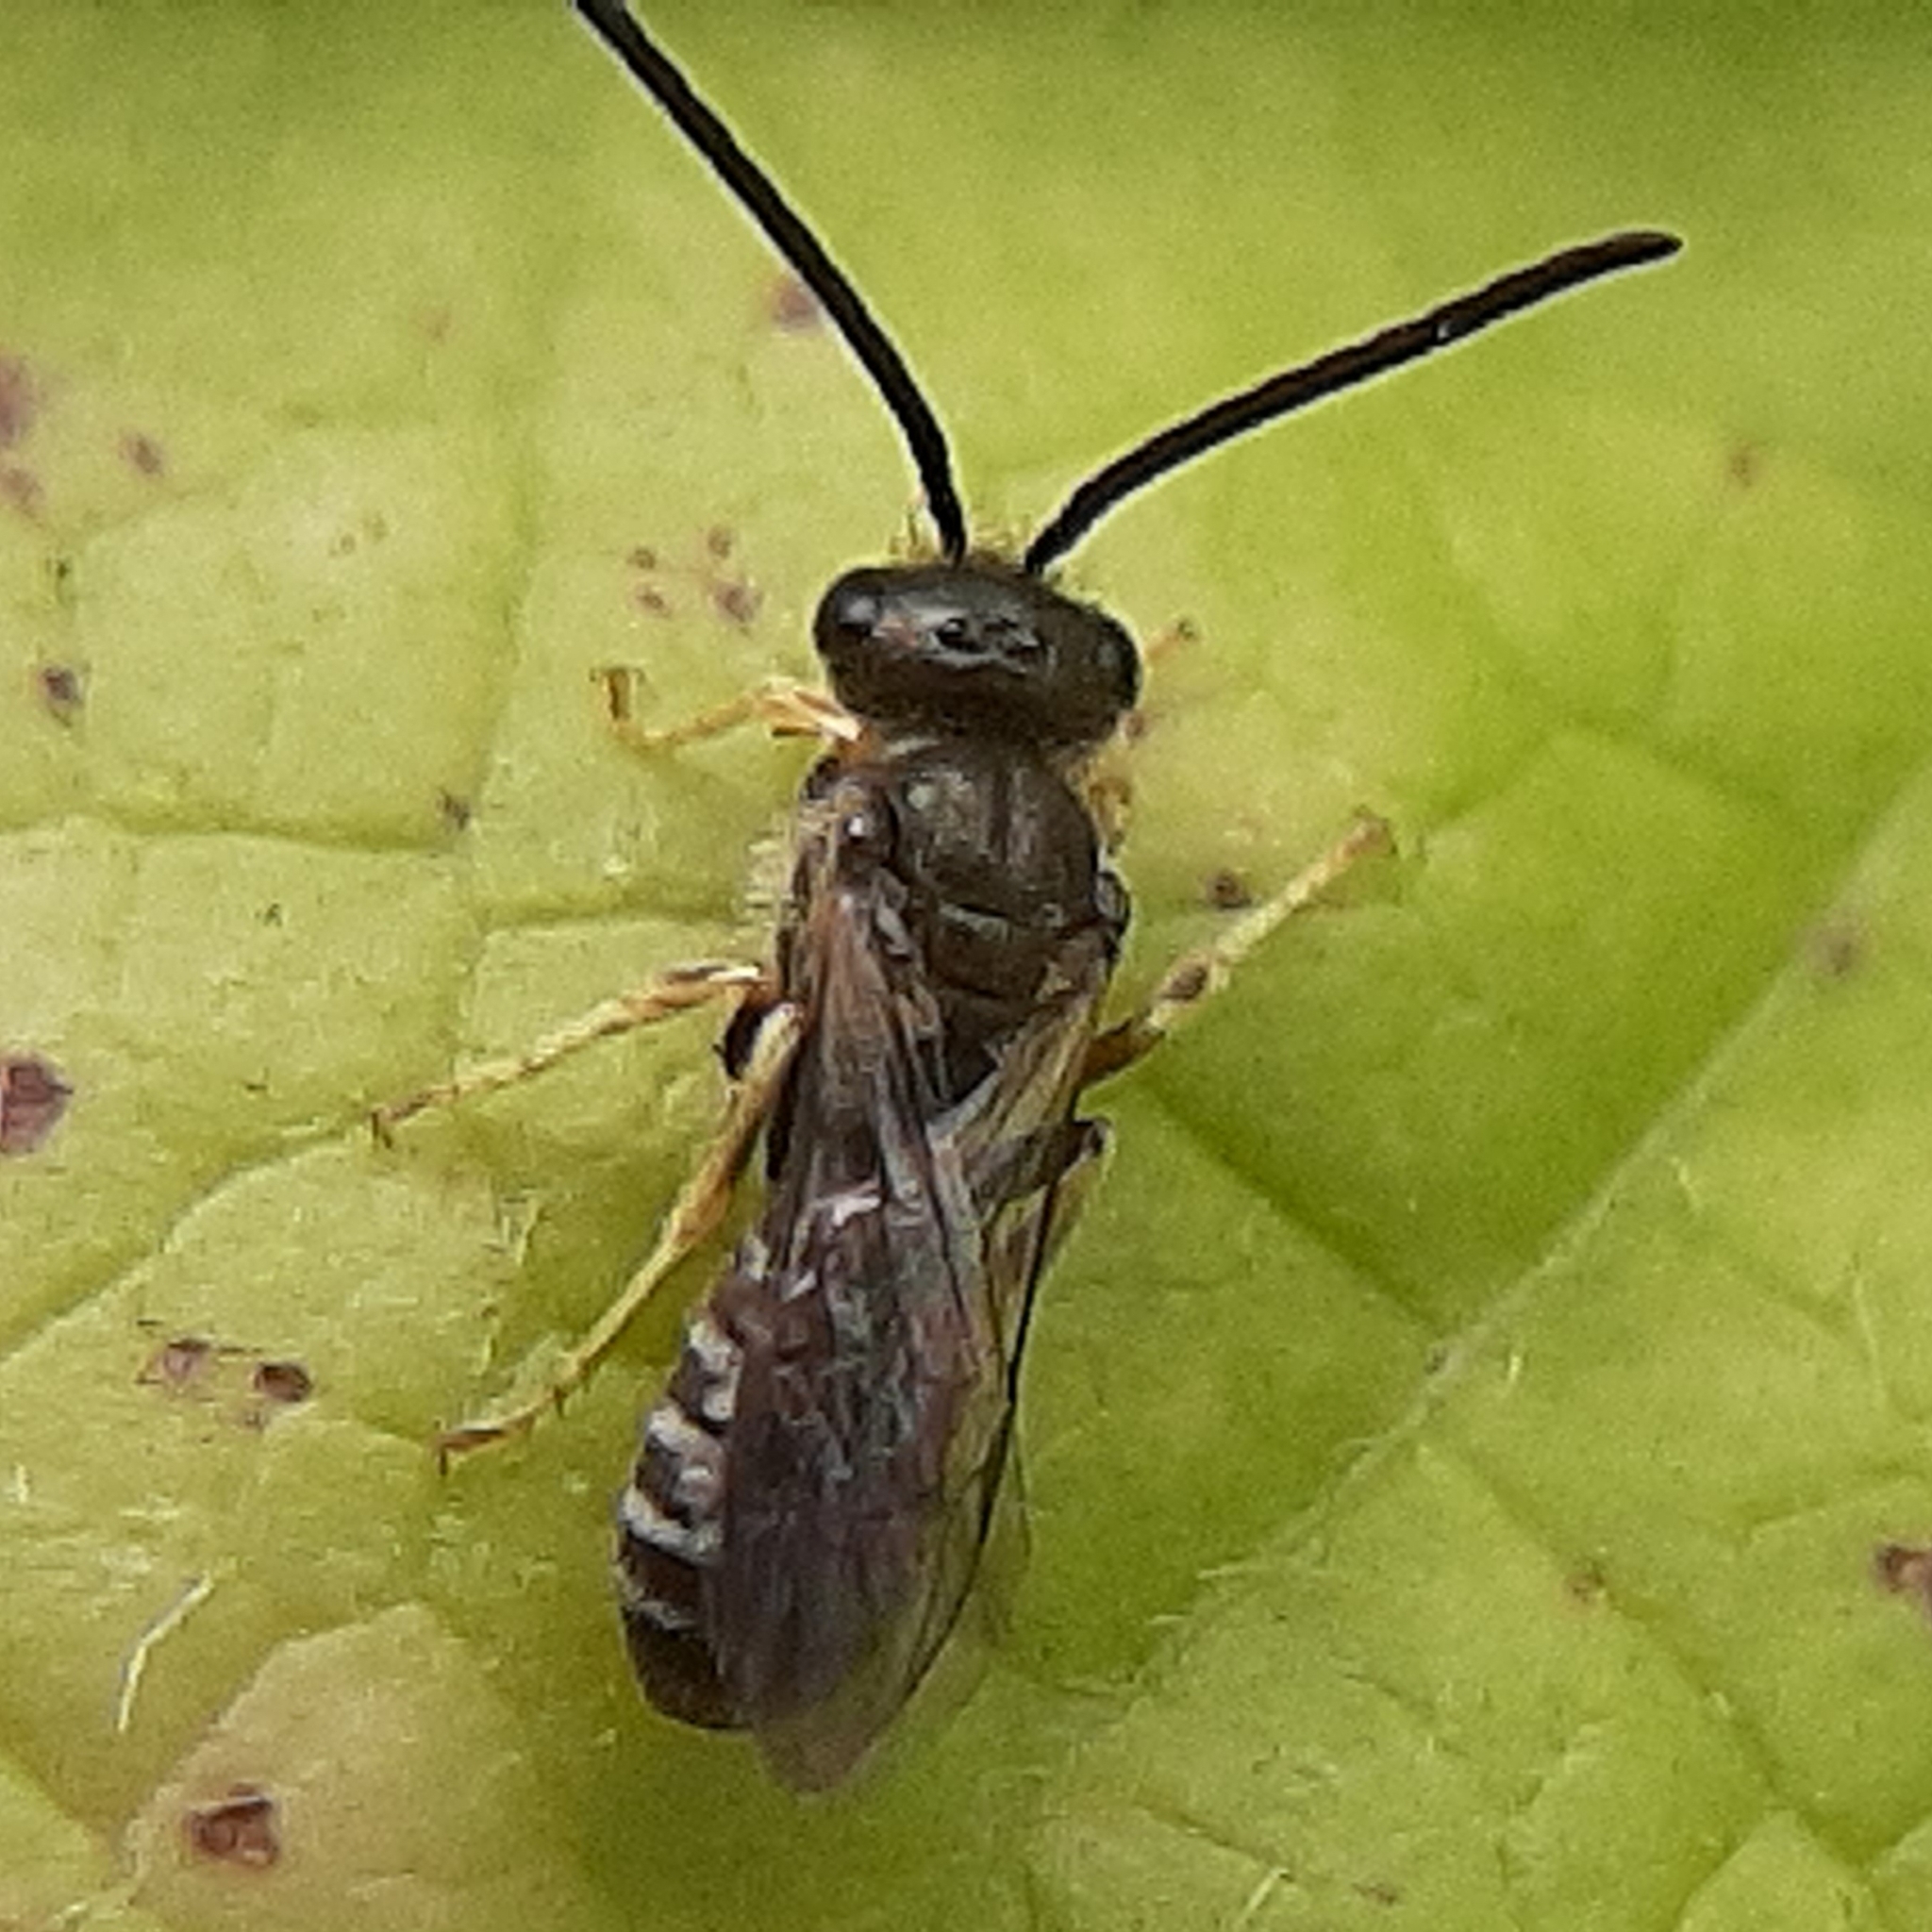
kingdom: Animalia
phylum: Arthropoda
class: Insecta
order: Hymenoptera
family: Halictidae
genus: Halictus
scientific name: Halictus confusus
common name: Southern bronze furrow bee
